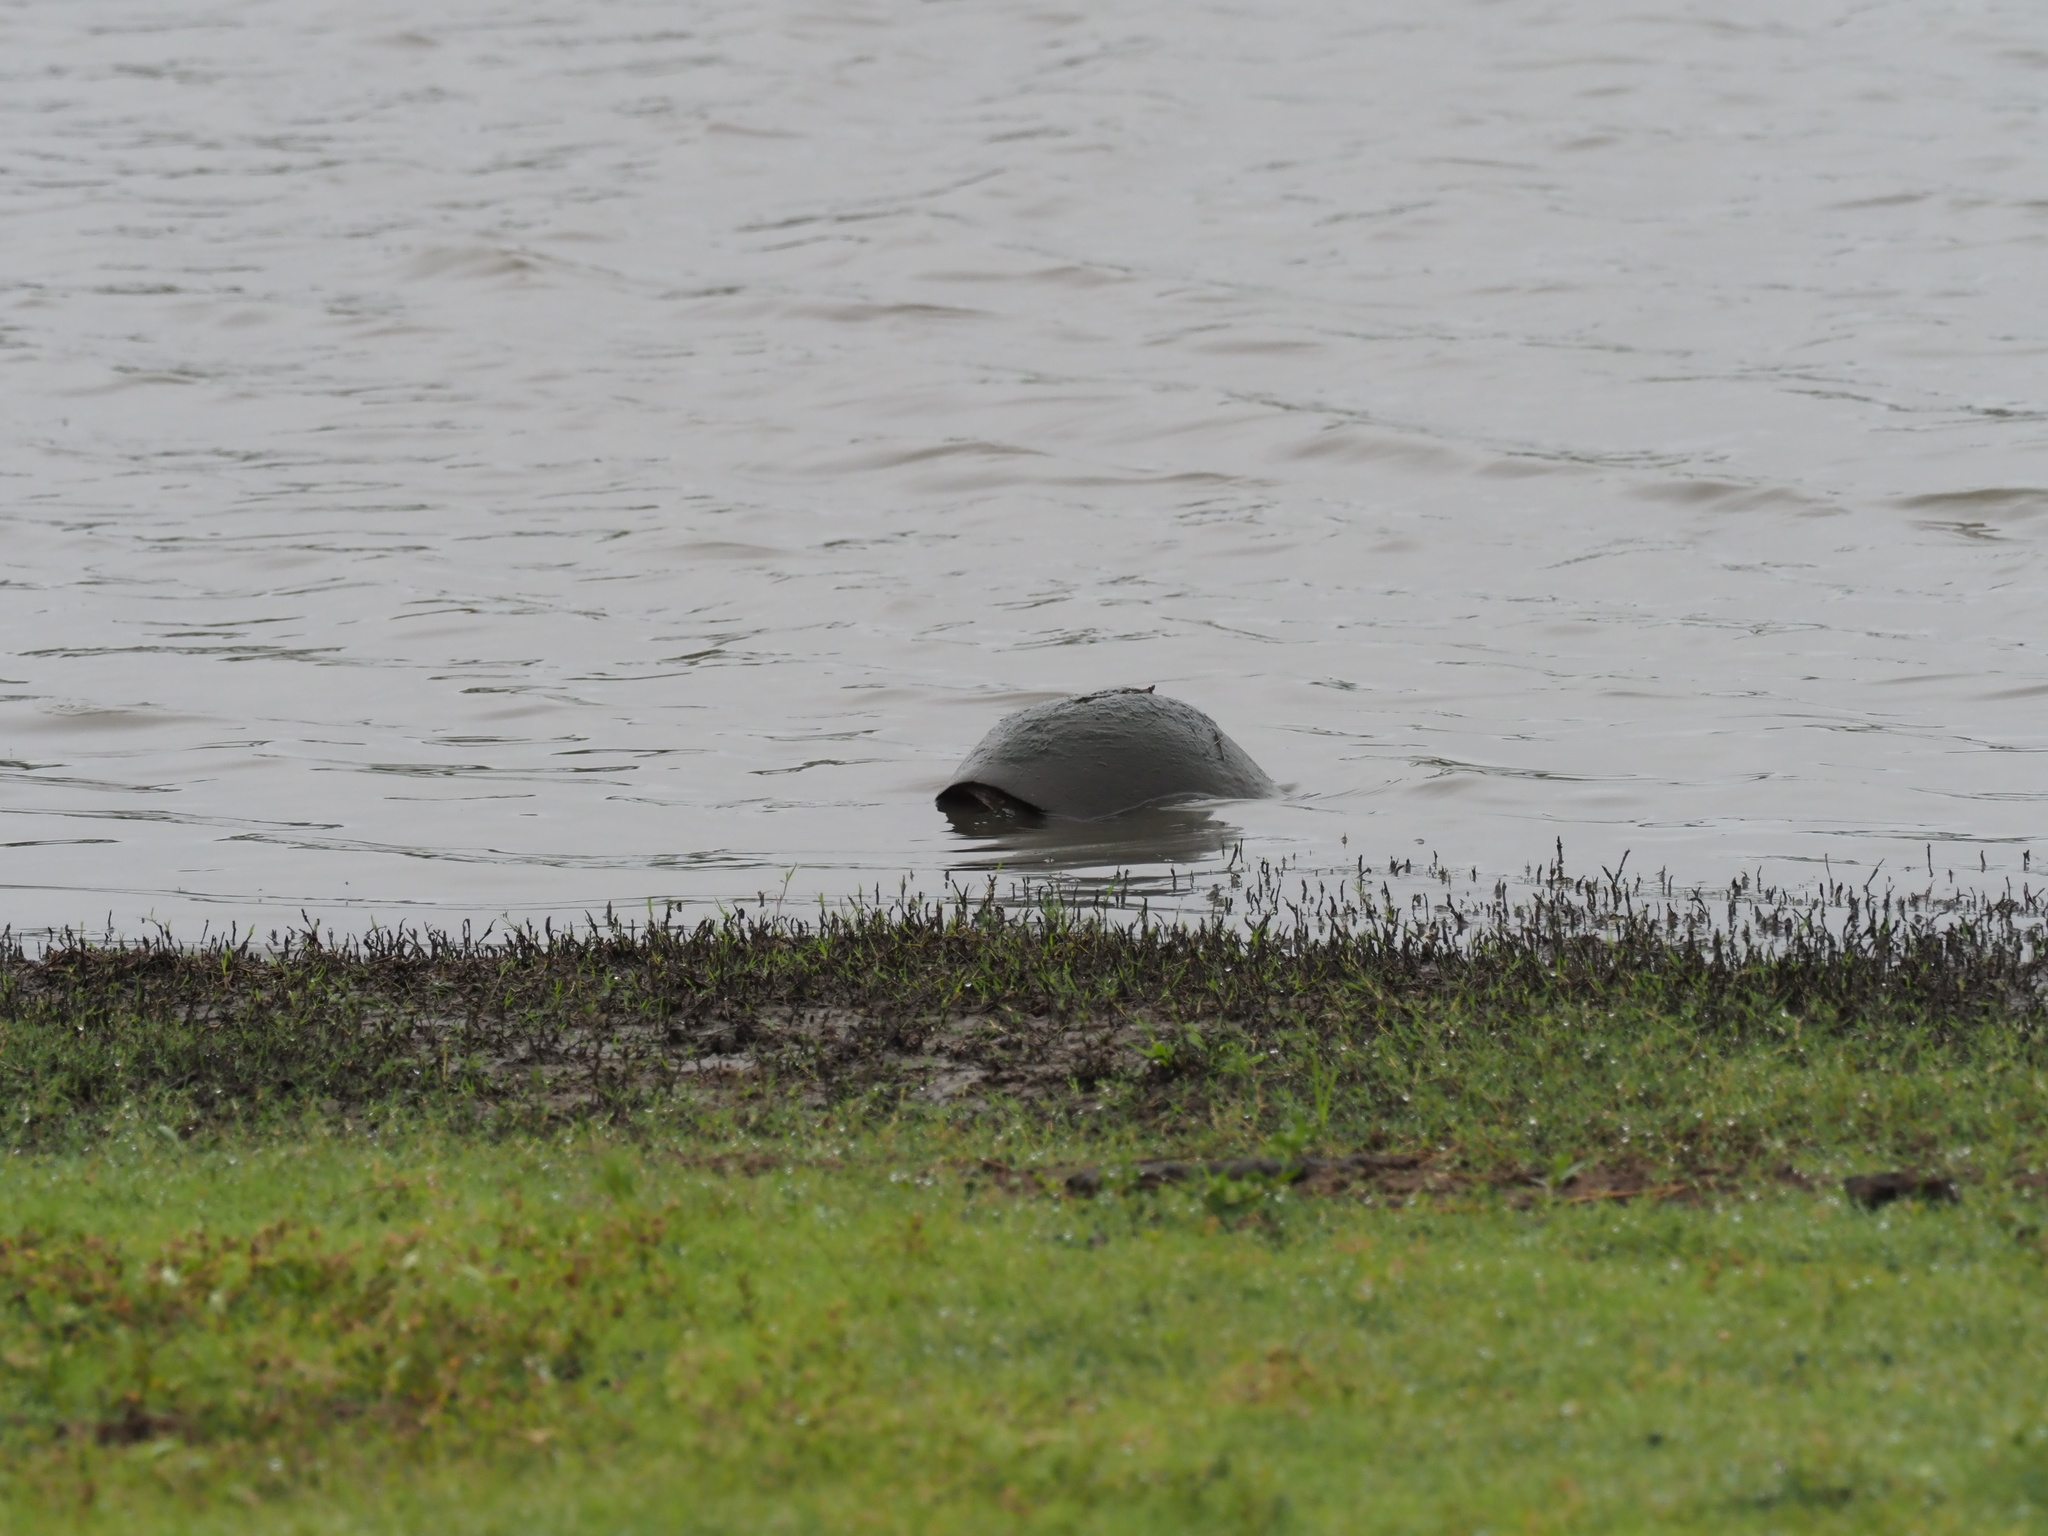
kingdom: Animalia
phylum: Chordata
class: Testudines
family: Pelomedusidae
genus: Pelusios
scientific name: Pelusios sinuatus
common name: Serrated hinged terrapin
